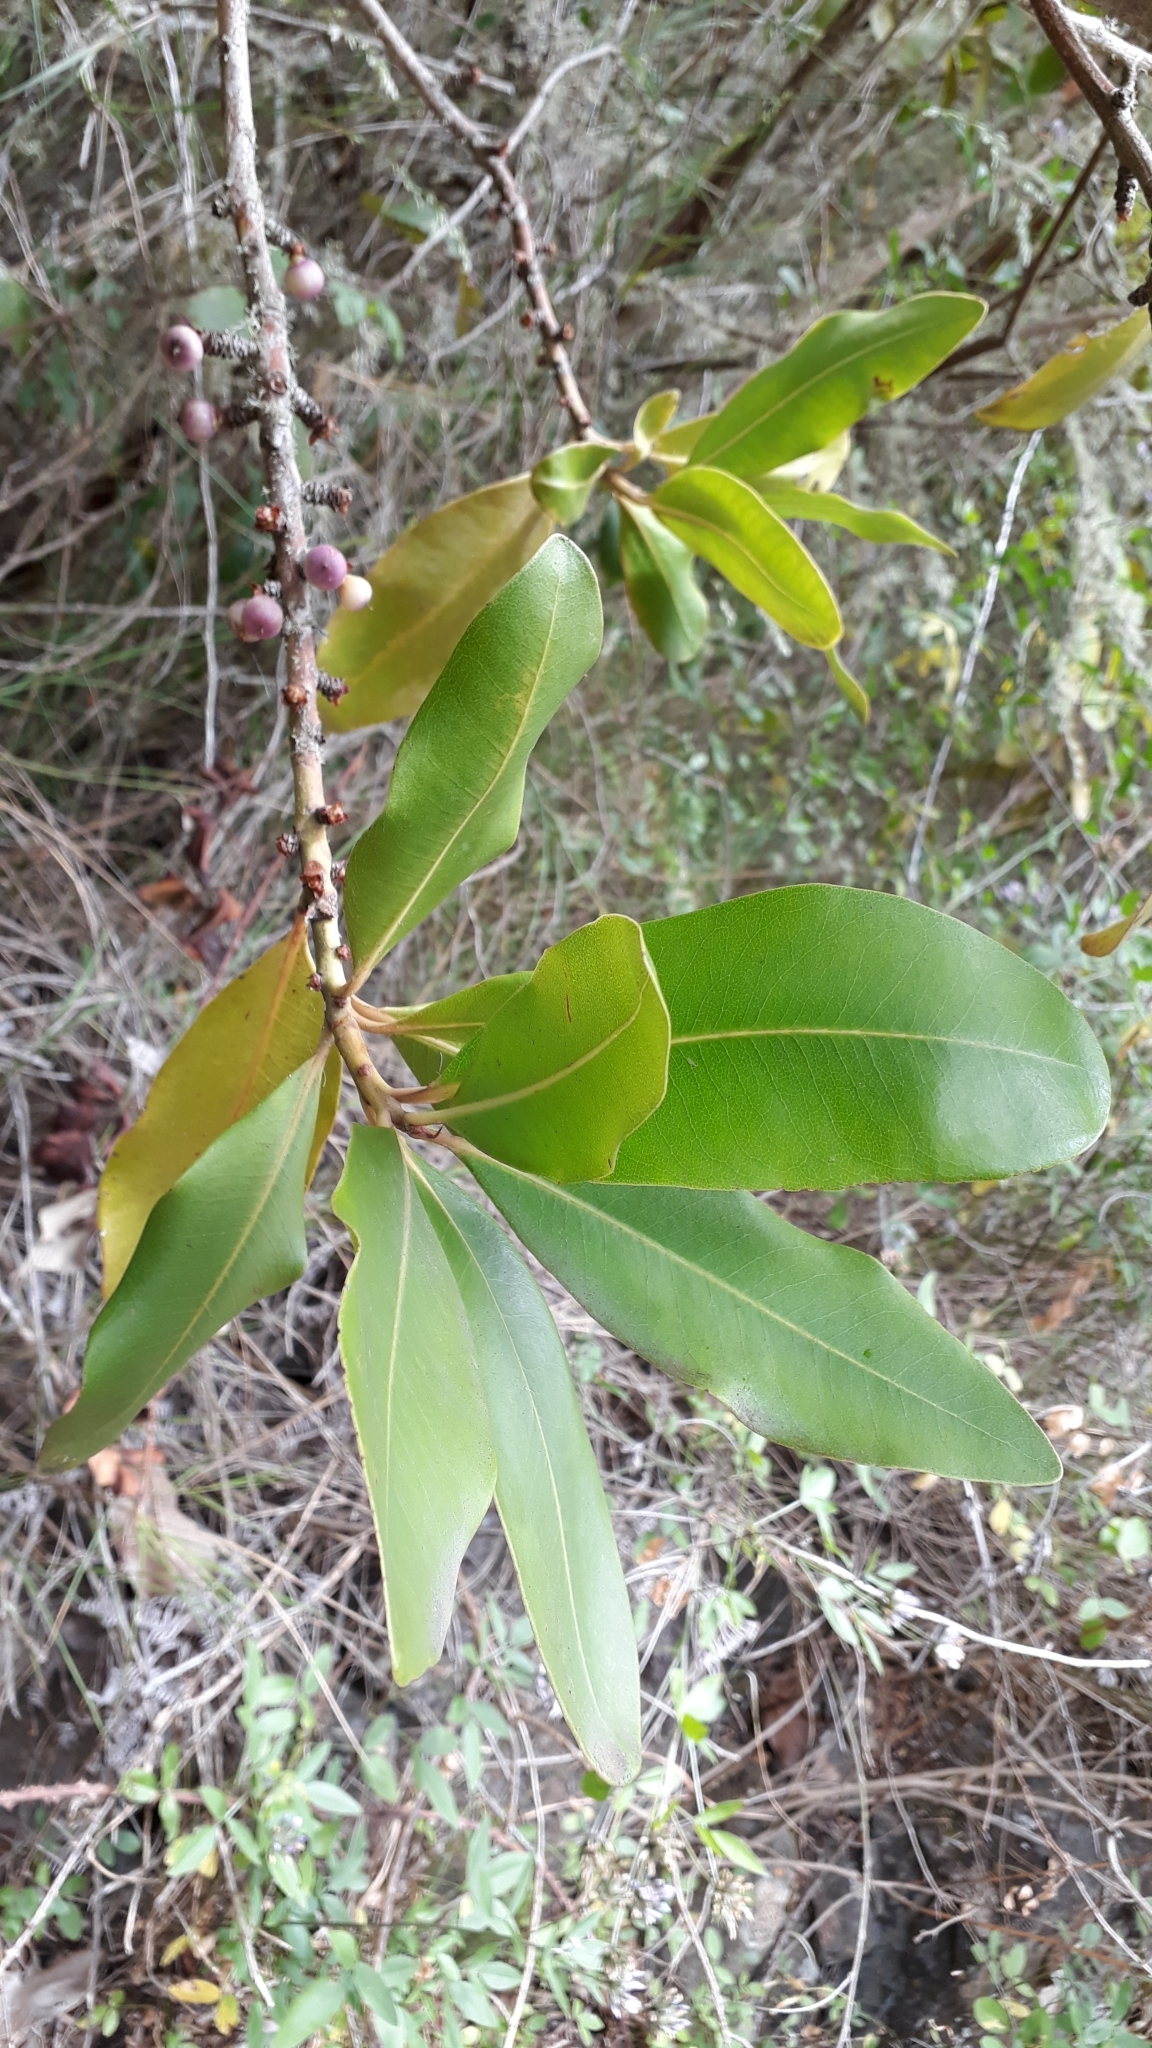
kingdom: Plantae
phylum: Tracheophyta
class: Magnoliopsida
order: Ericales
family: Primulaceae
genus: Pleiomeris
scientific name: Pleiomeris canariensis
